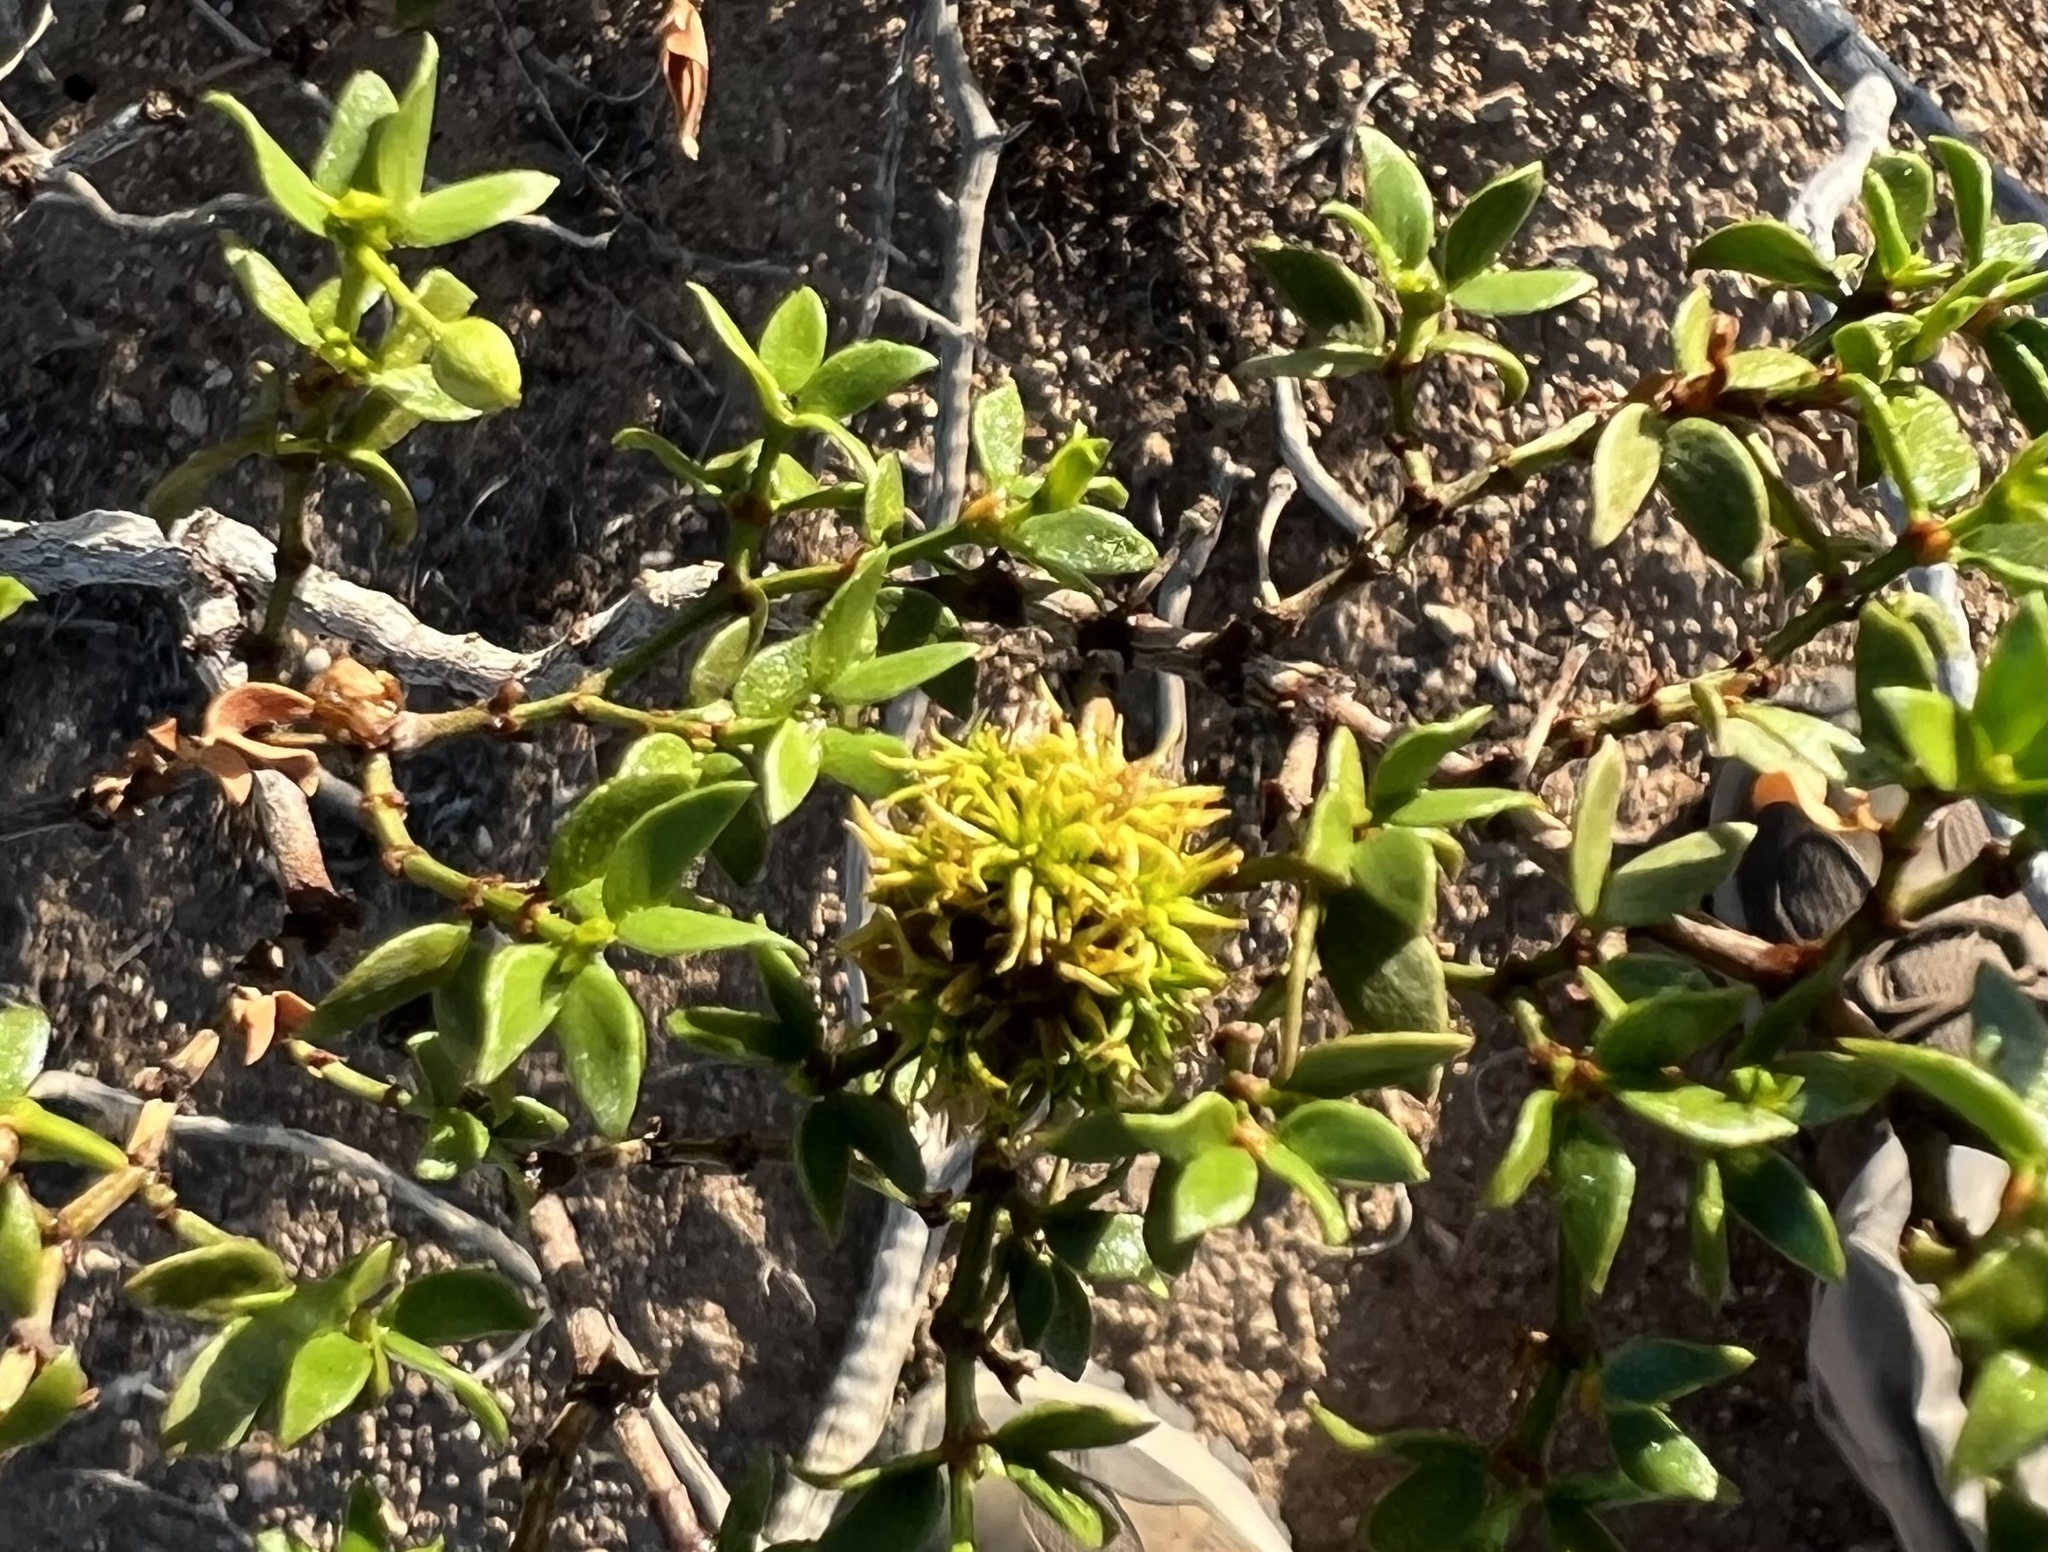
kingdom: Animalia
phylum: Arthropoda
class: Insecta
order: Diptera
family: Cecidomyiidae
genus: Asphondylia
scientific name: Asphondylia auripila
